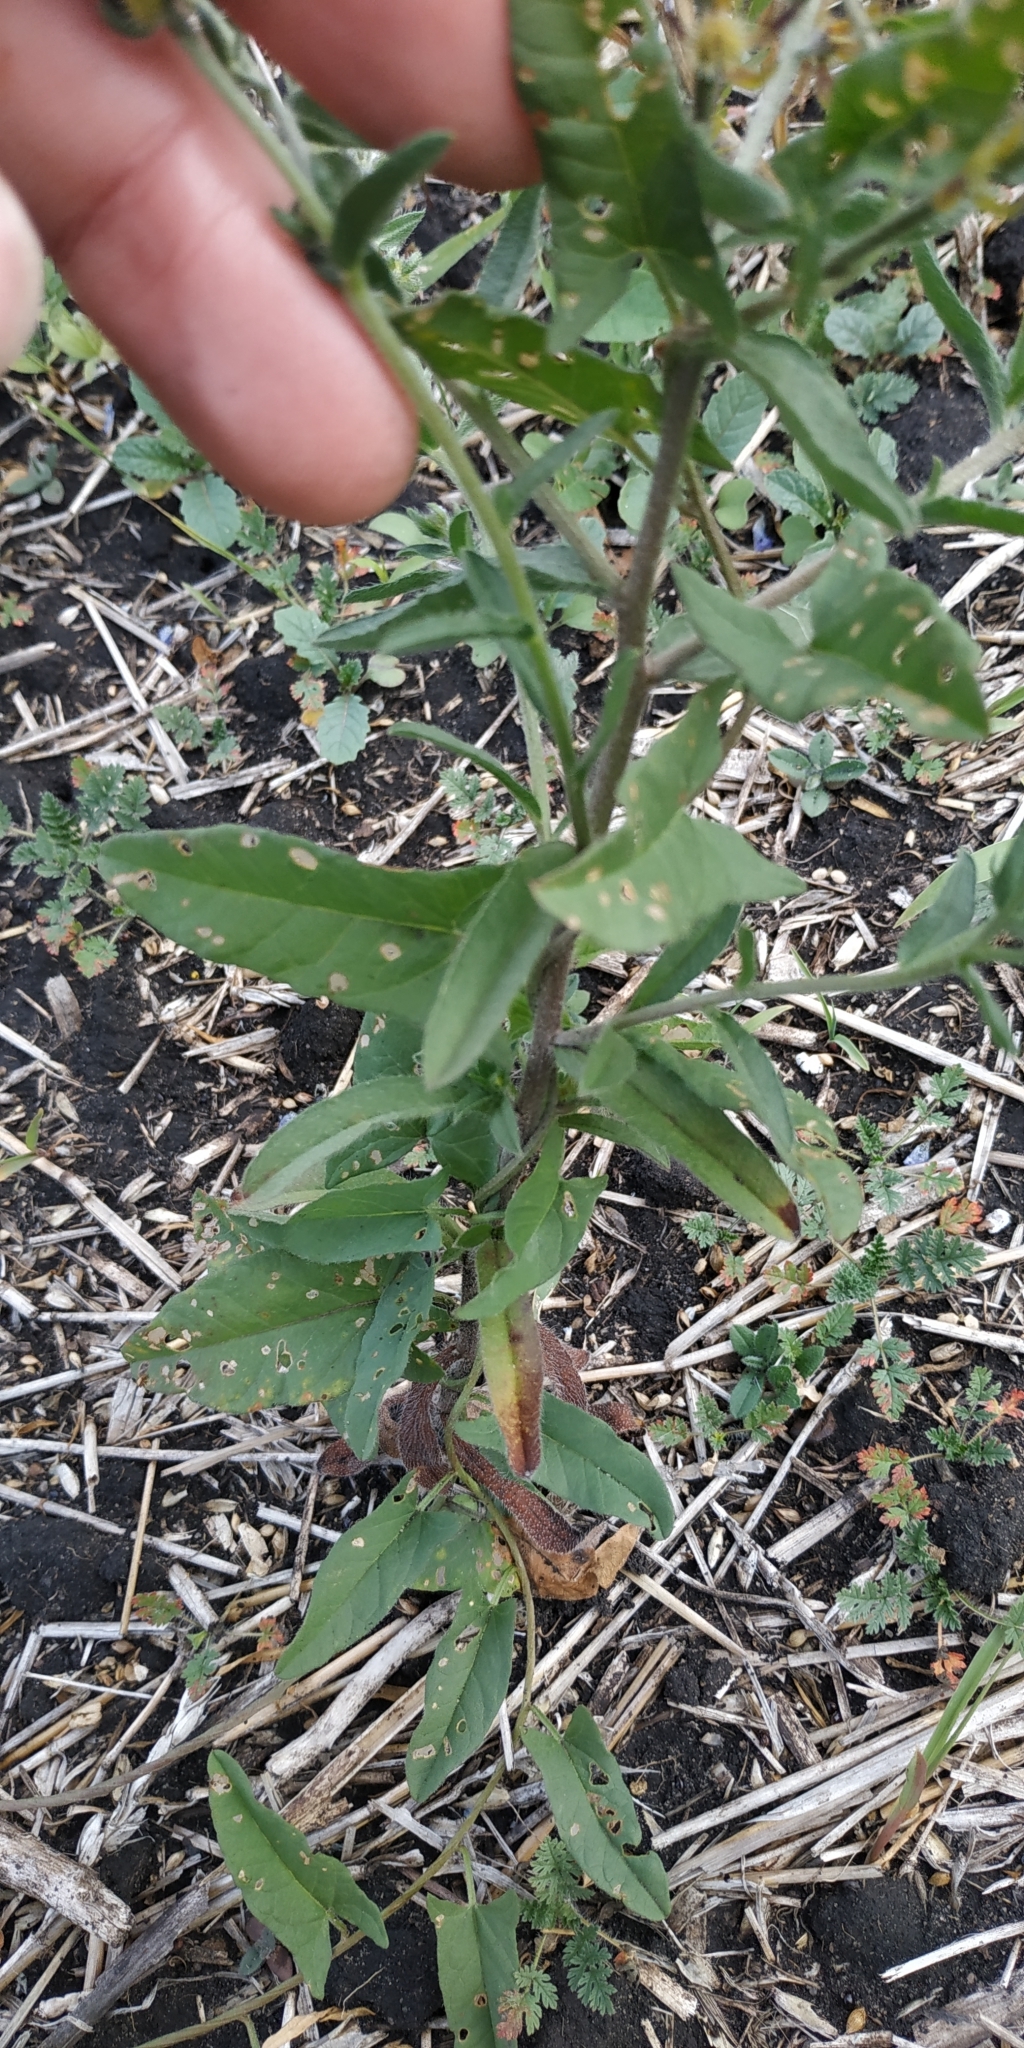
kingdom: Plantae
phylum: Tracheophyta
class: Magnoliopsida
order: Boraginales
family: Boraginaceae
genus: Lappula
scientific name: Lappula squarrosa
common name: European stickseed
